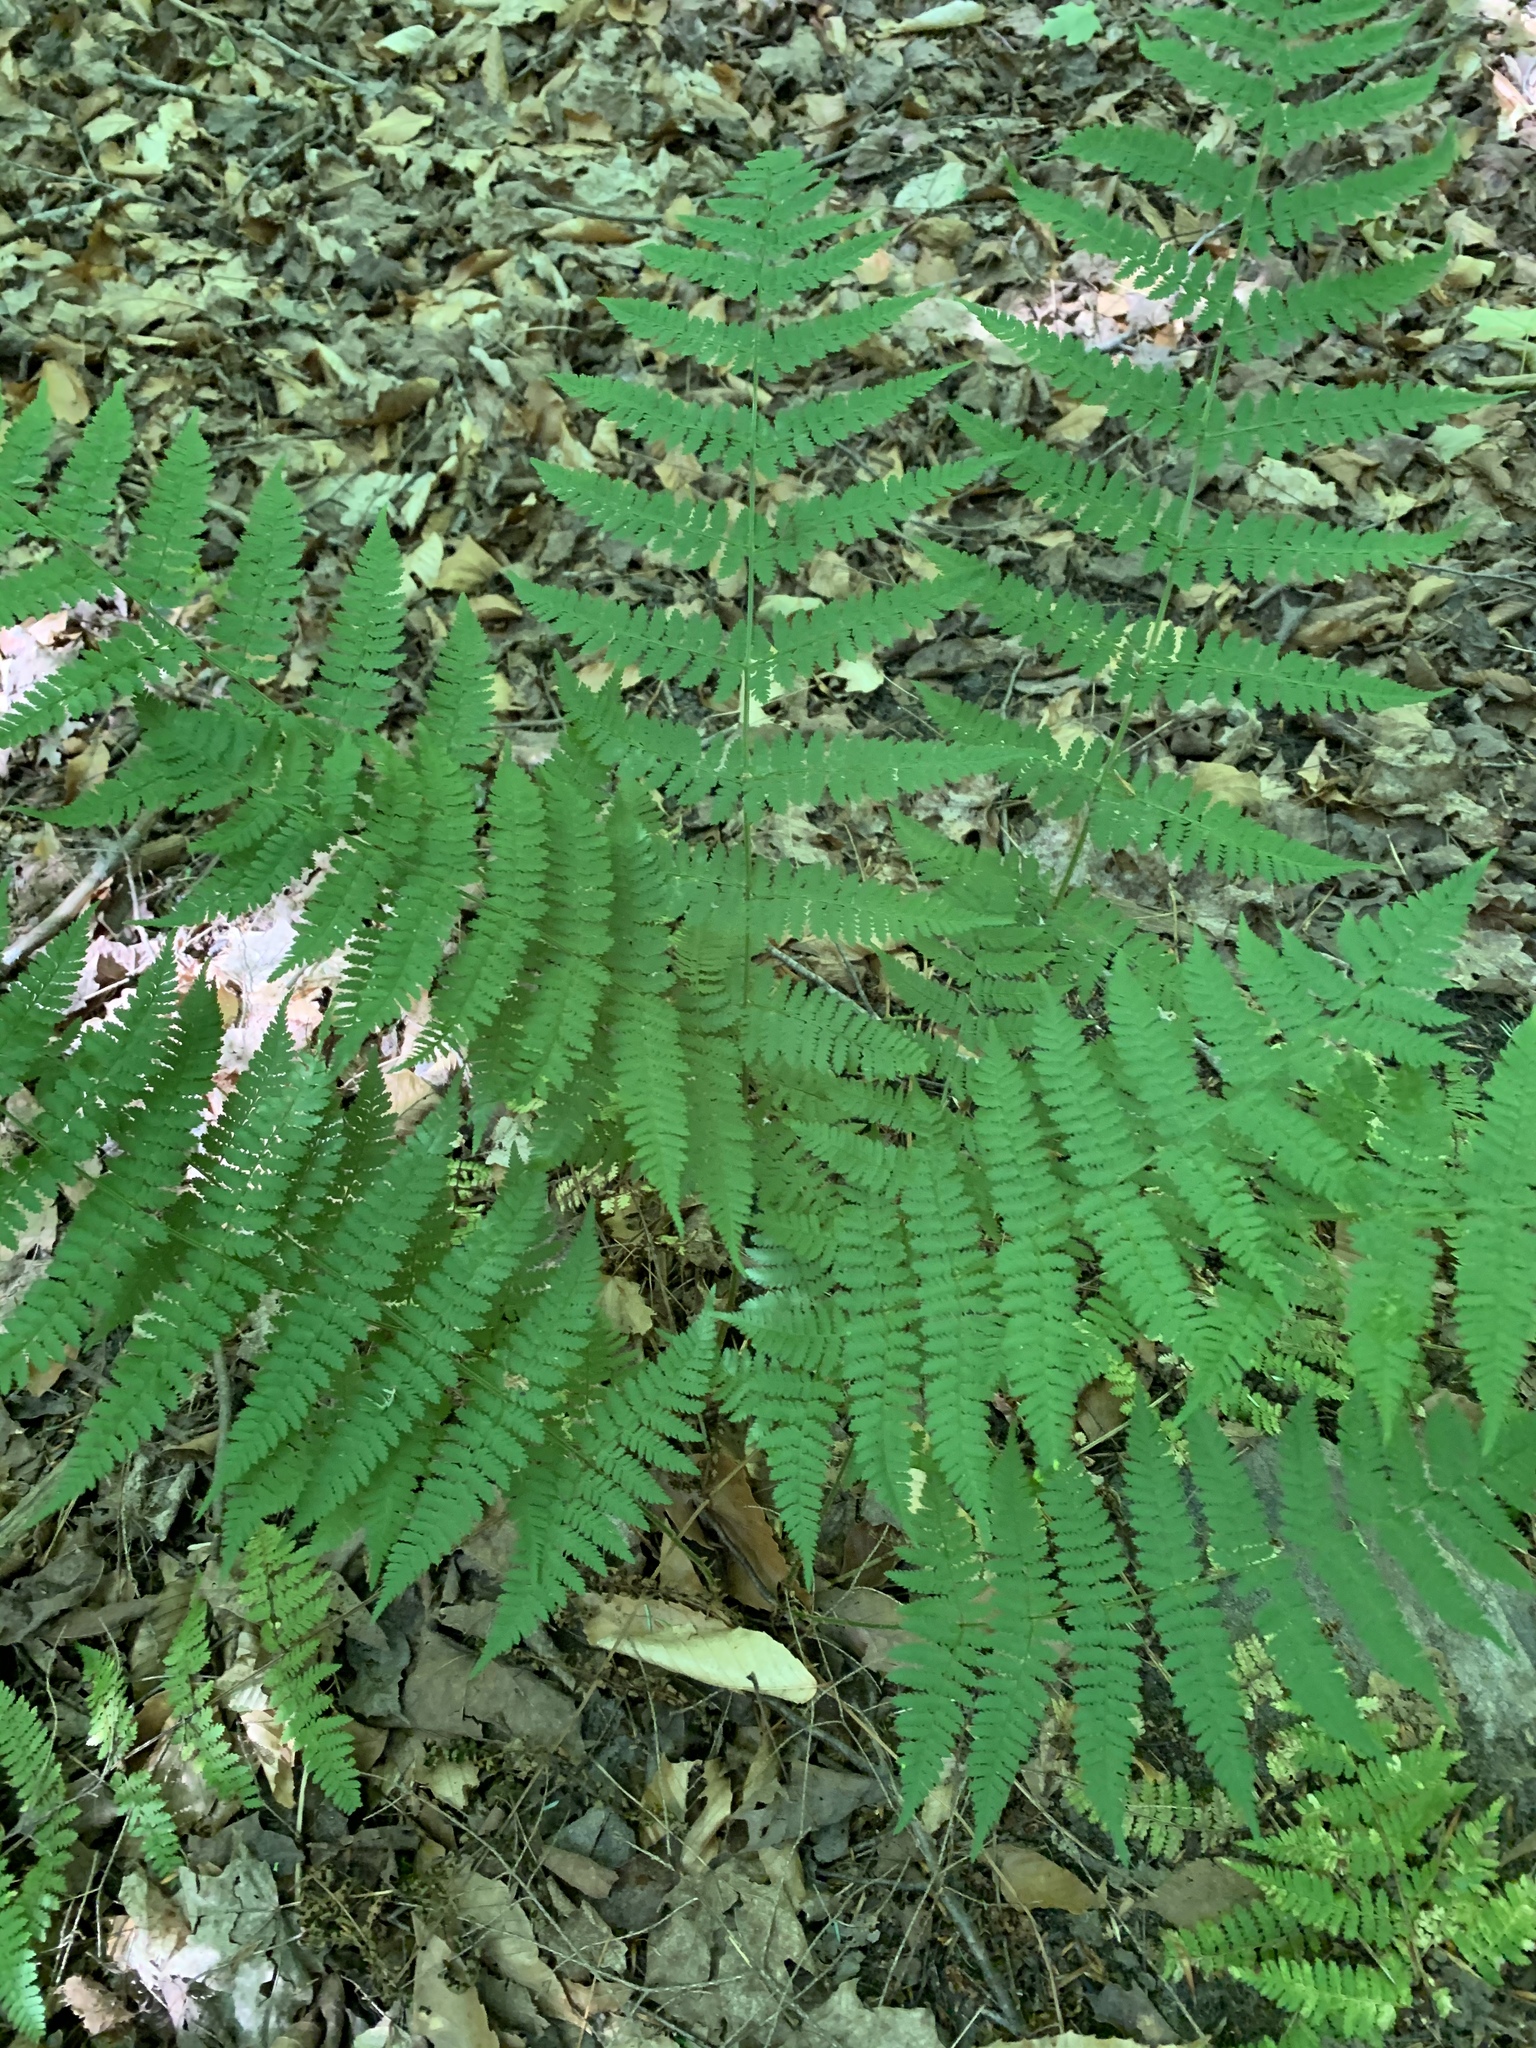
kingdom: Plantae
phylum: Tracheophyta
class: Polypodiopsida
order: Polypodiales
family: Dryopteridaceae
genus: Dryopteris
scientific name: Dryopteris intermedia
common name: Evergreen wood fern
